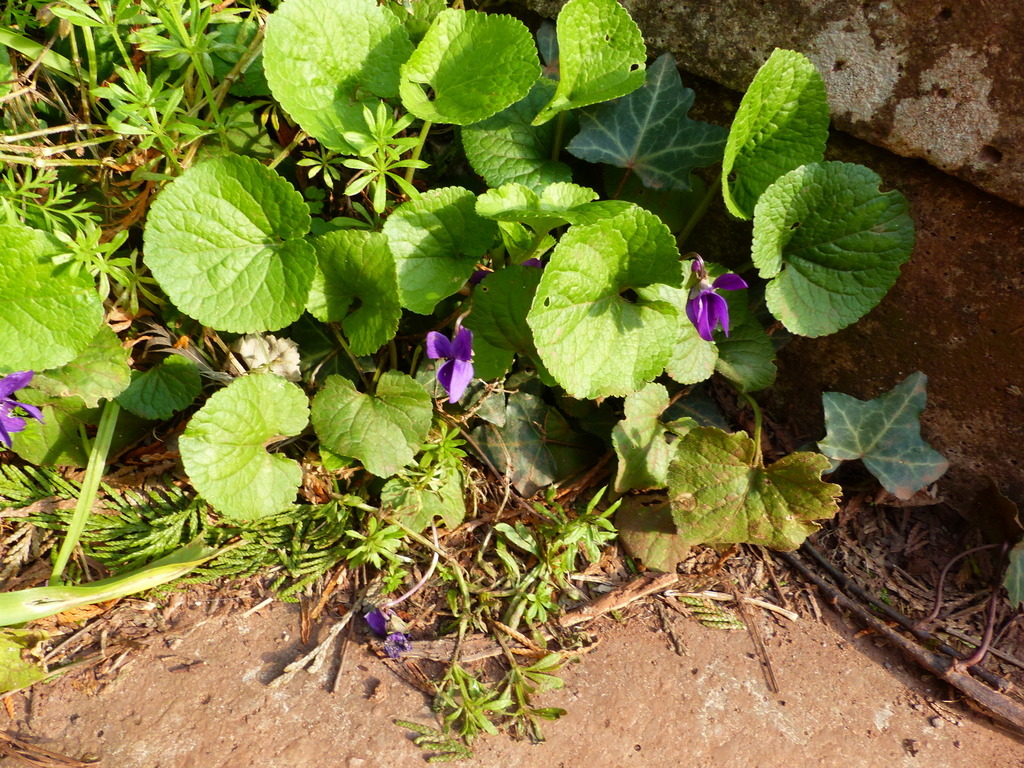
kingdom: Plantae
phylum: Tracheophyta
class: Magnoliopsida
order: Malpighiales
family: Violaceae
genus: Viola
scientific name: Viola odorata
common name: Sweet violet
